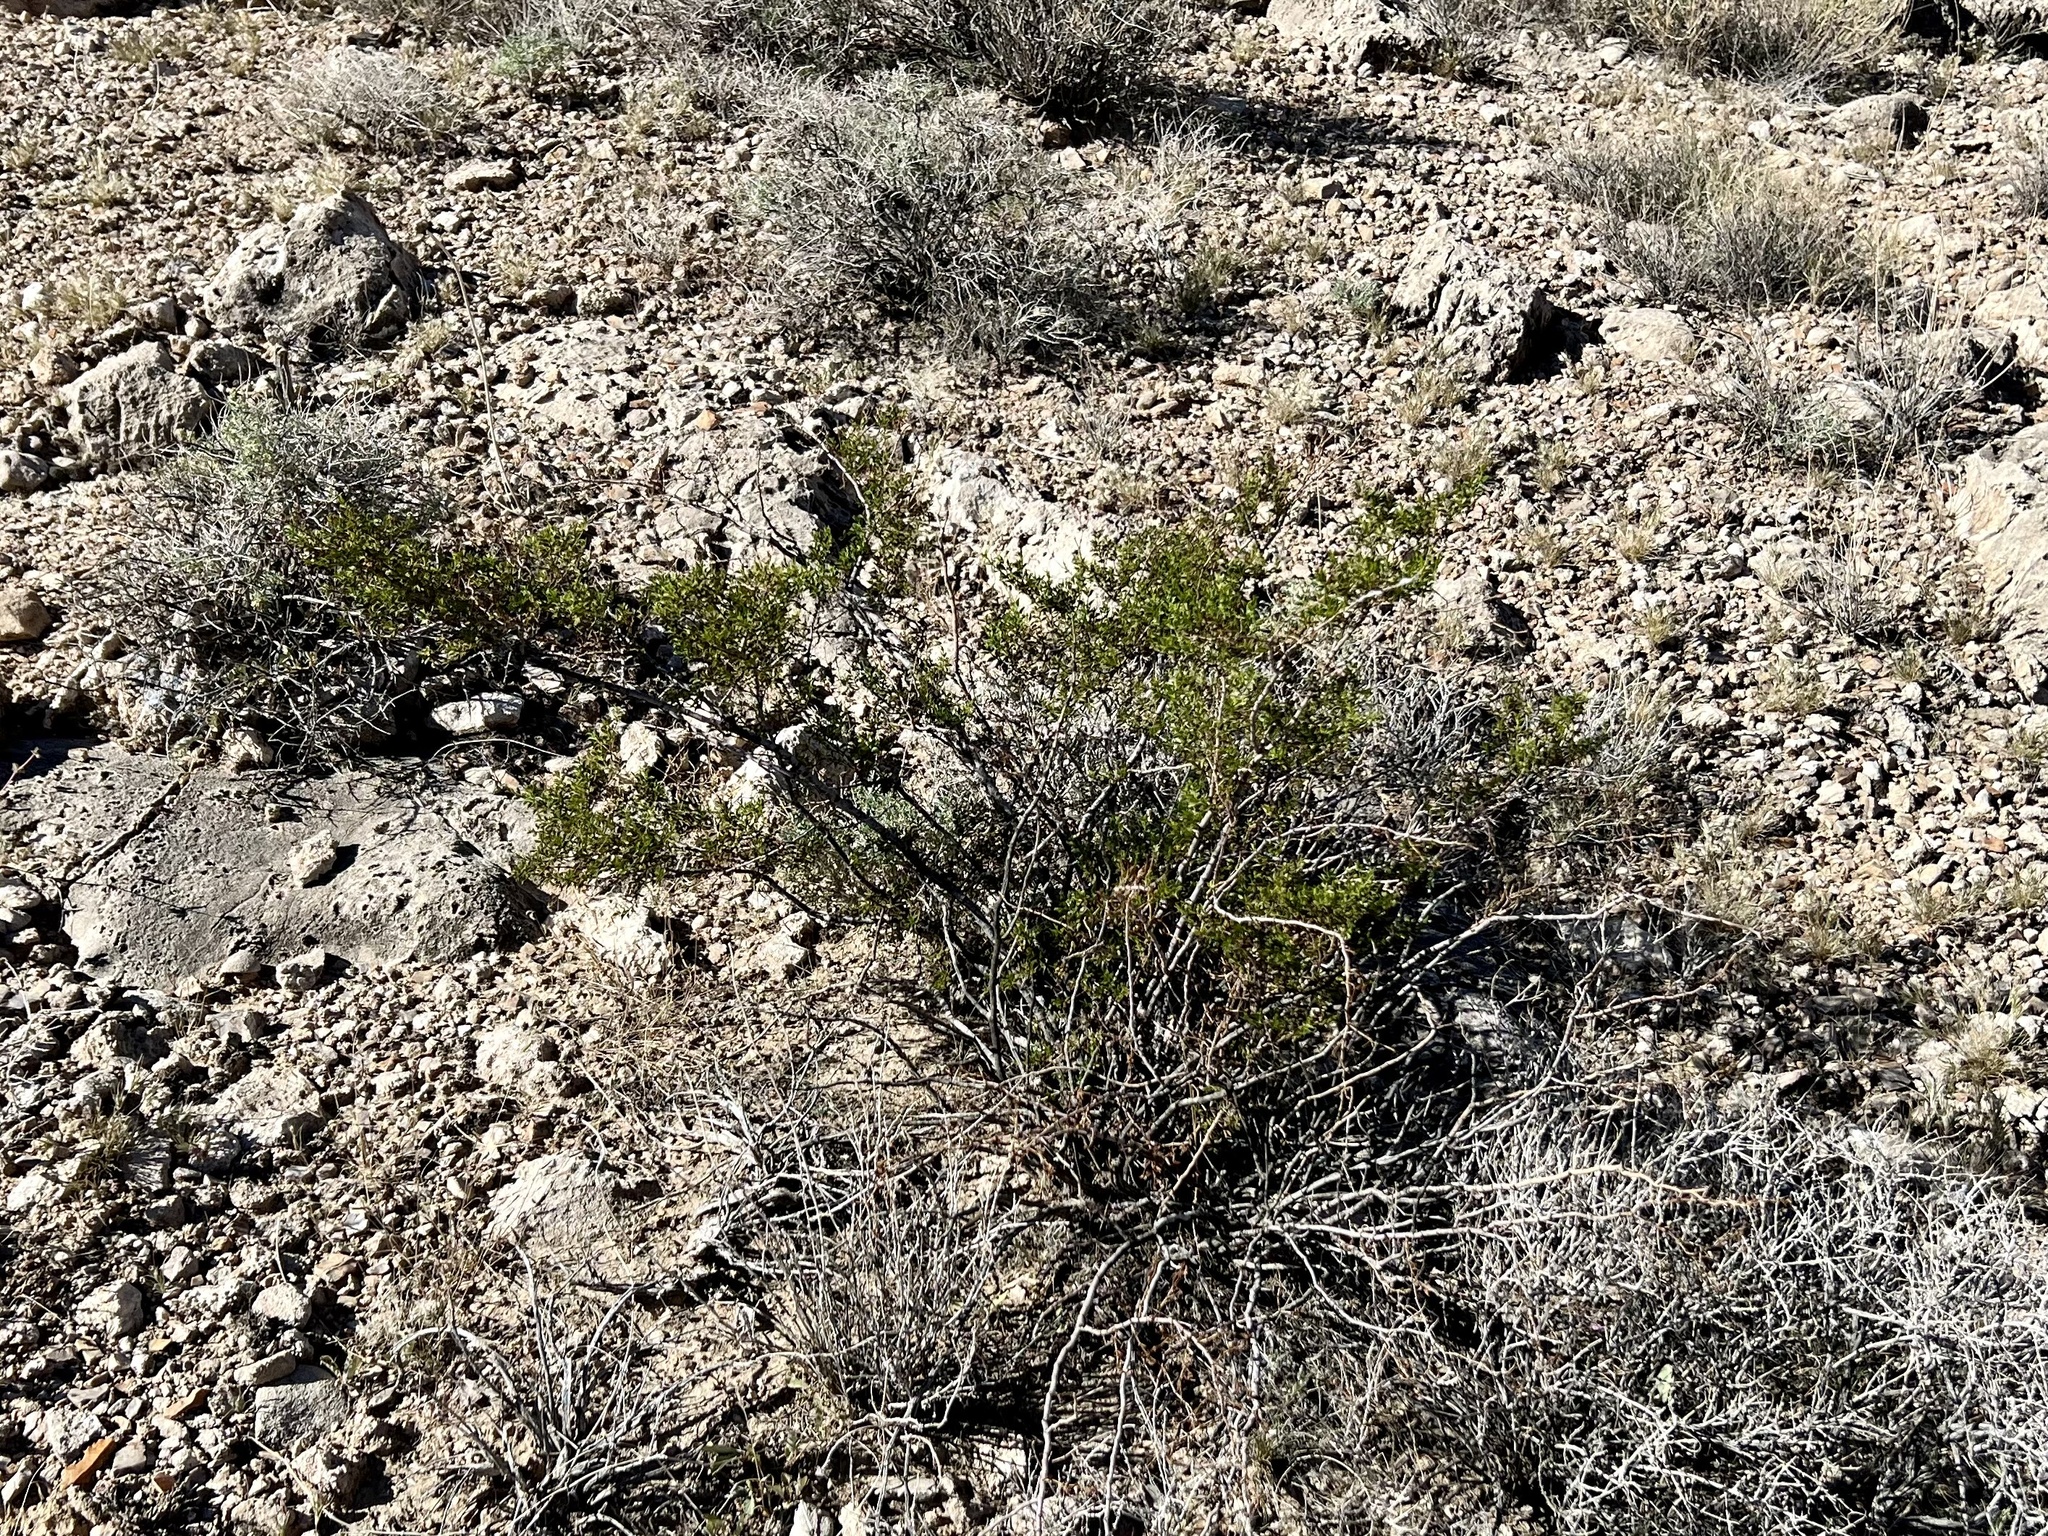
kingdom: Plantae
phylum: Tracheophyta
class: Magnoliopsida
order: Zygophyllales
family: Zygophyllaceae
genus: Larrea
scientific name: Larrea tridentata
